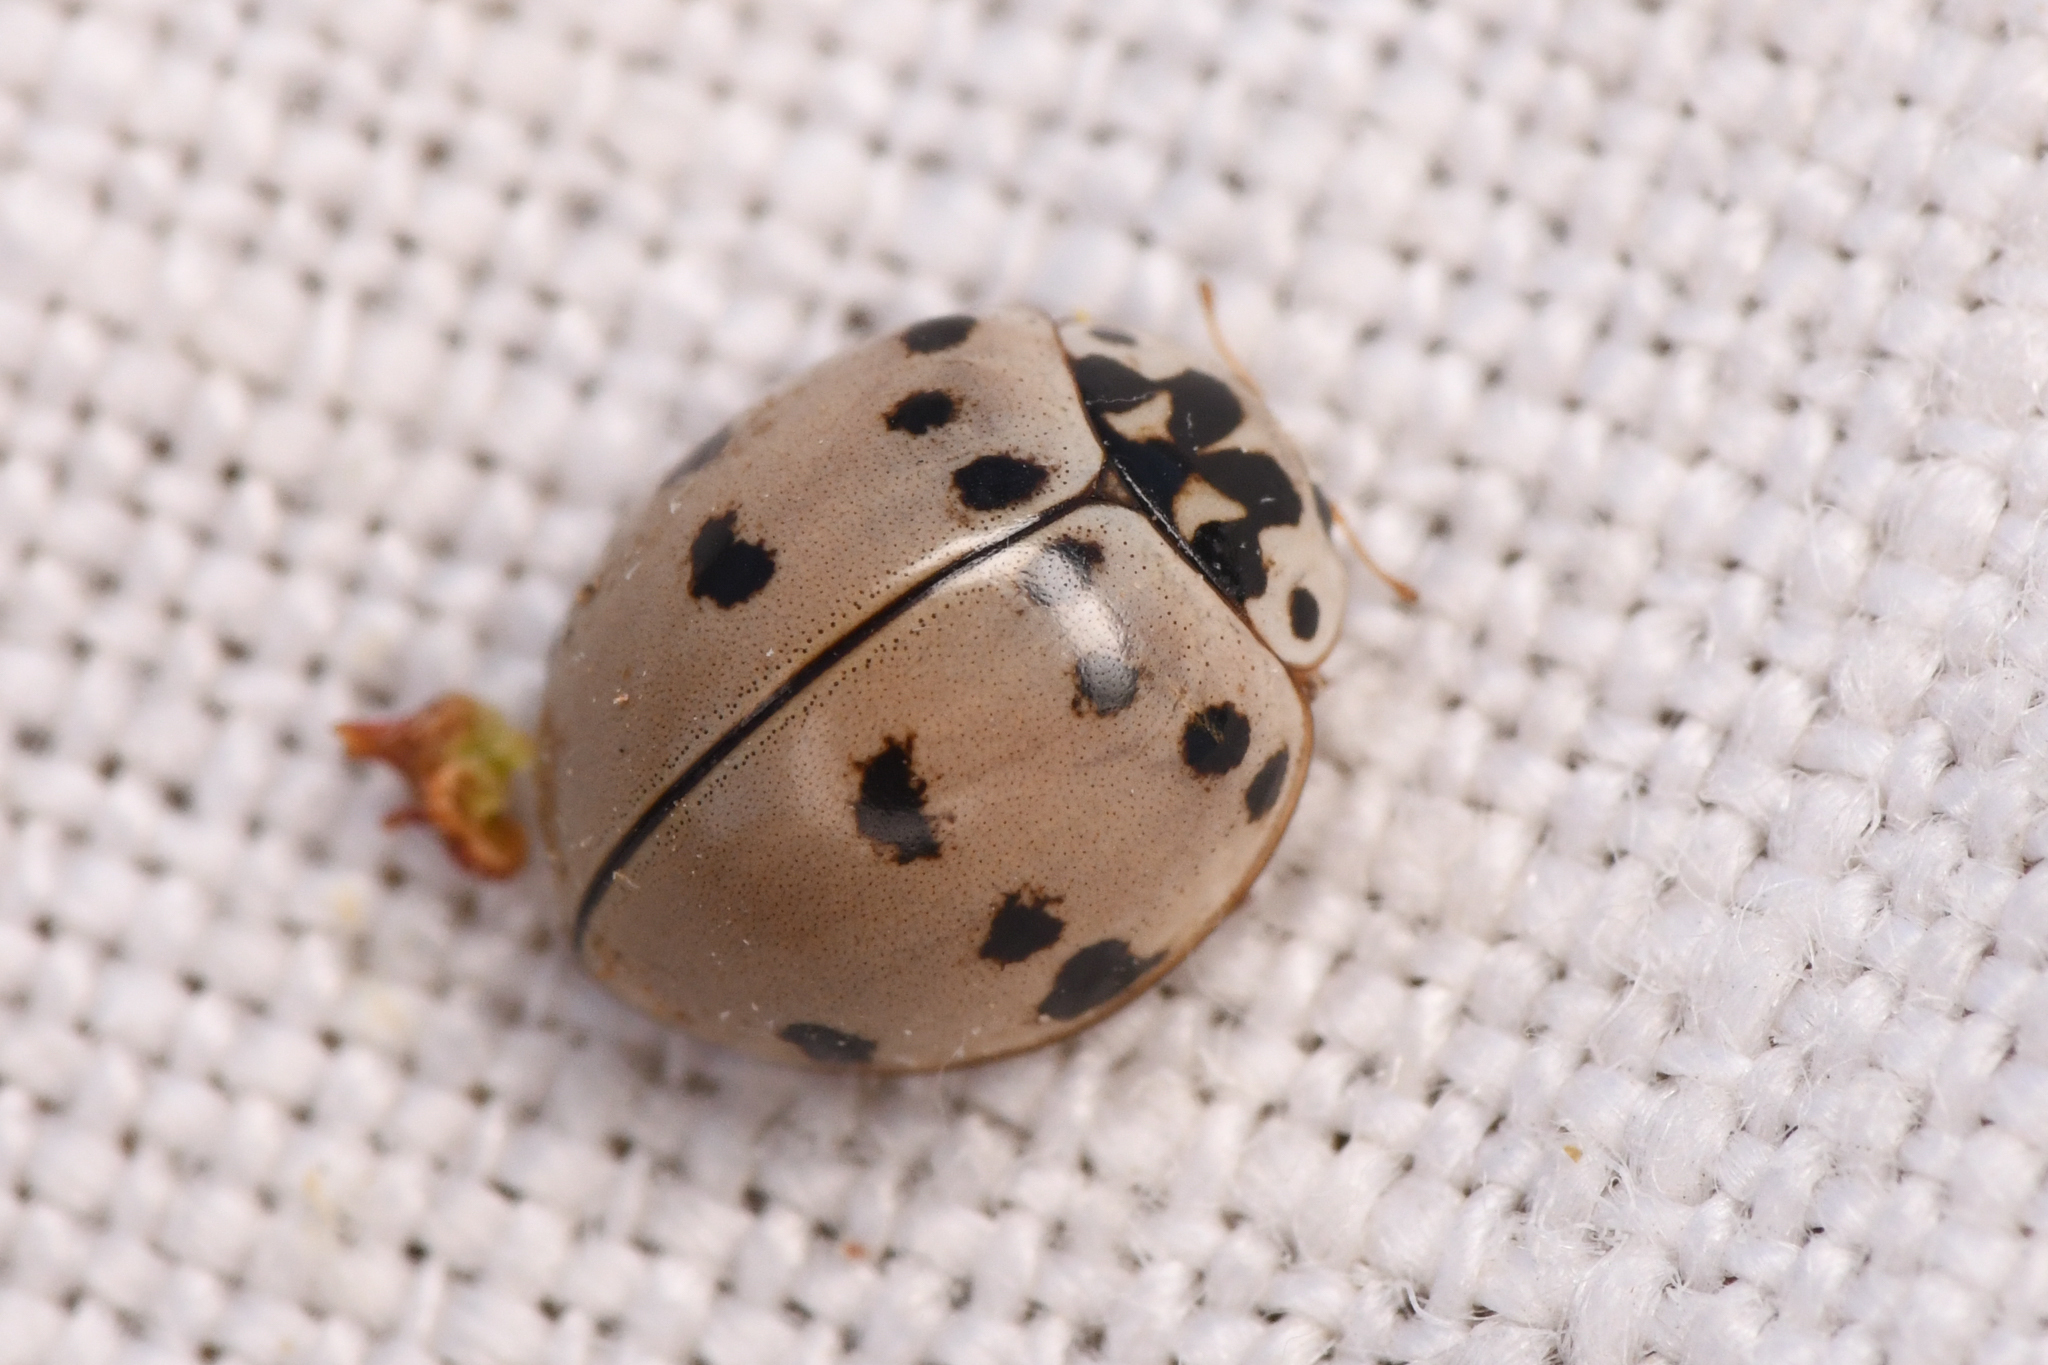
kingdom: Animalia
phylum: Arthropoda
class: Insecta
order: Coleoptera
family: Coccinellidae
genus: Olla
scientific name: Olla v-nigrum
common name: Ashy gray lady beetle
